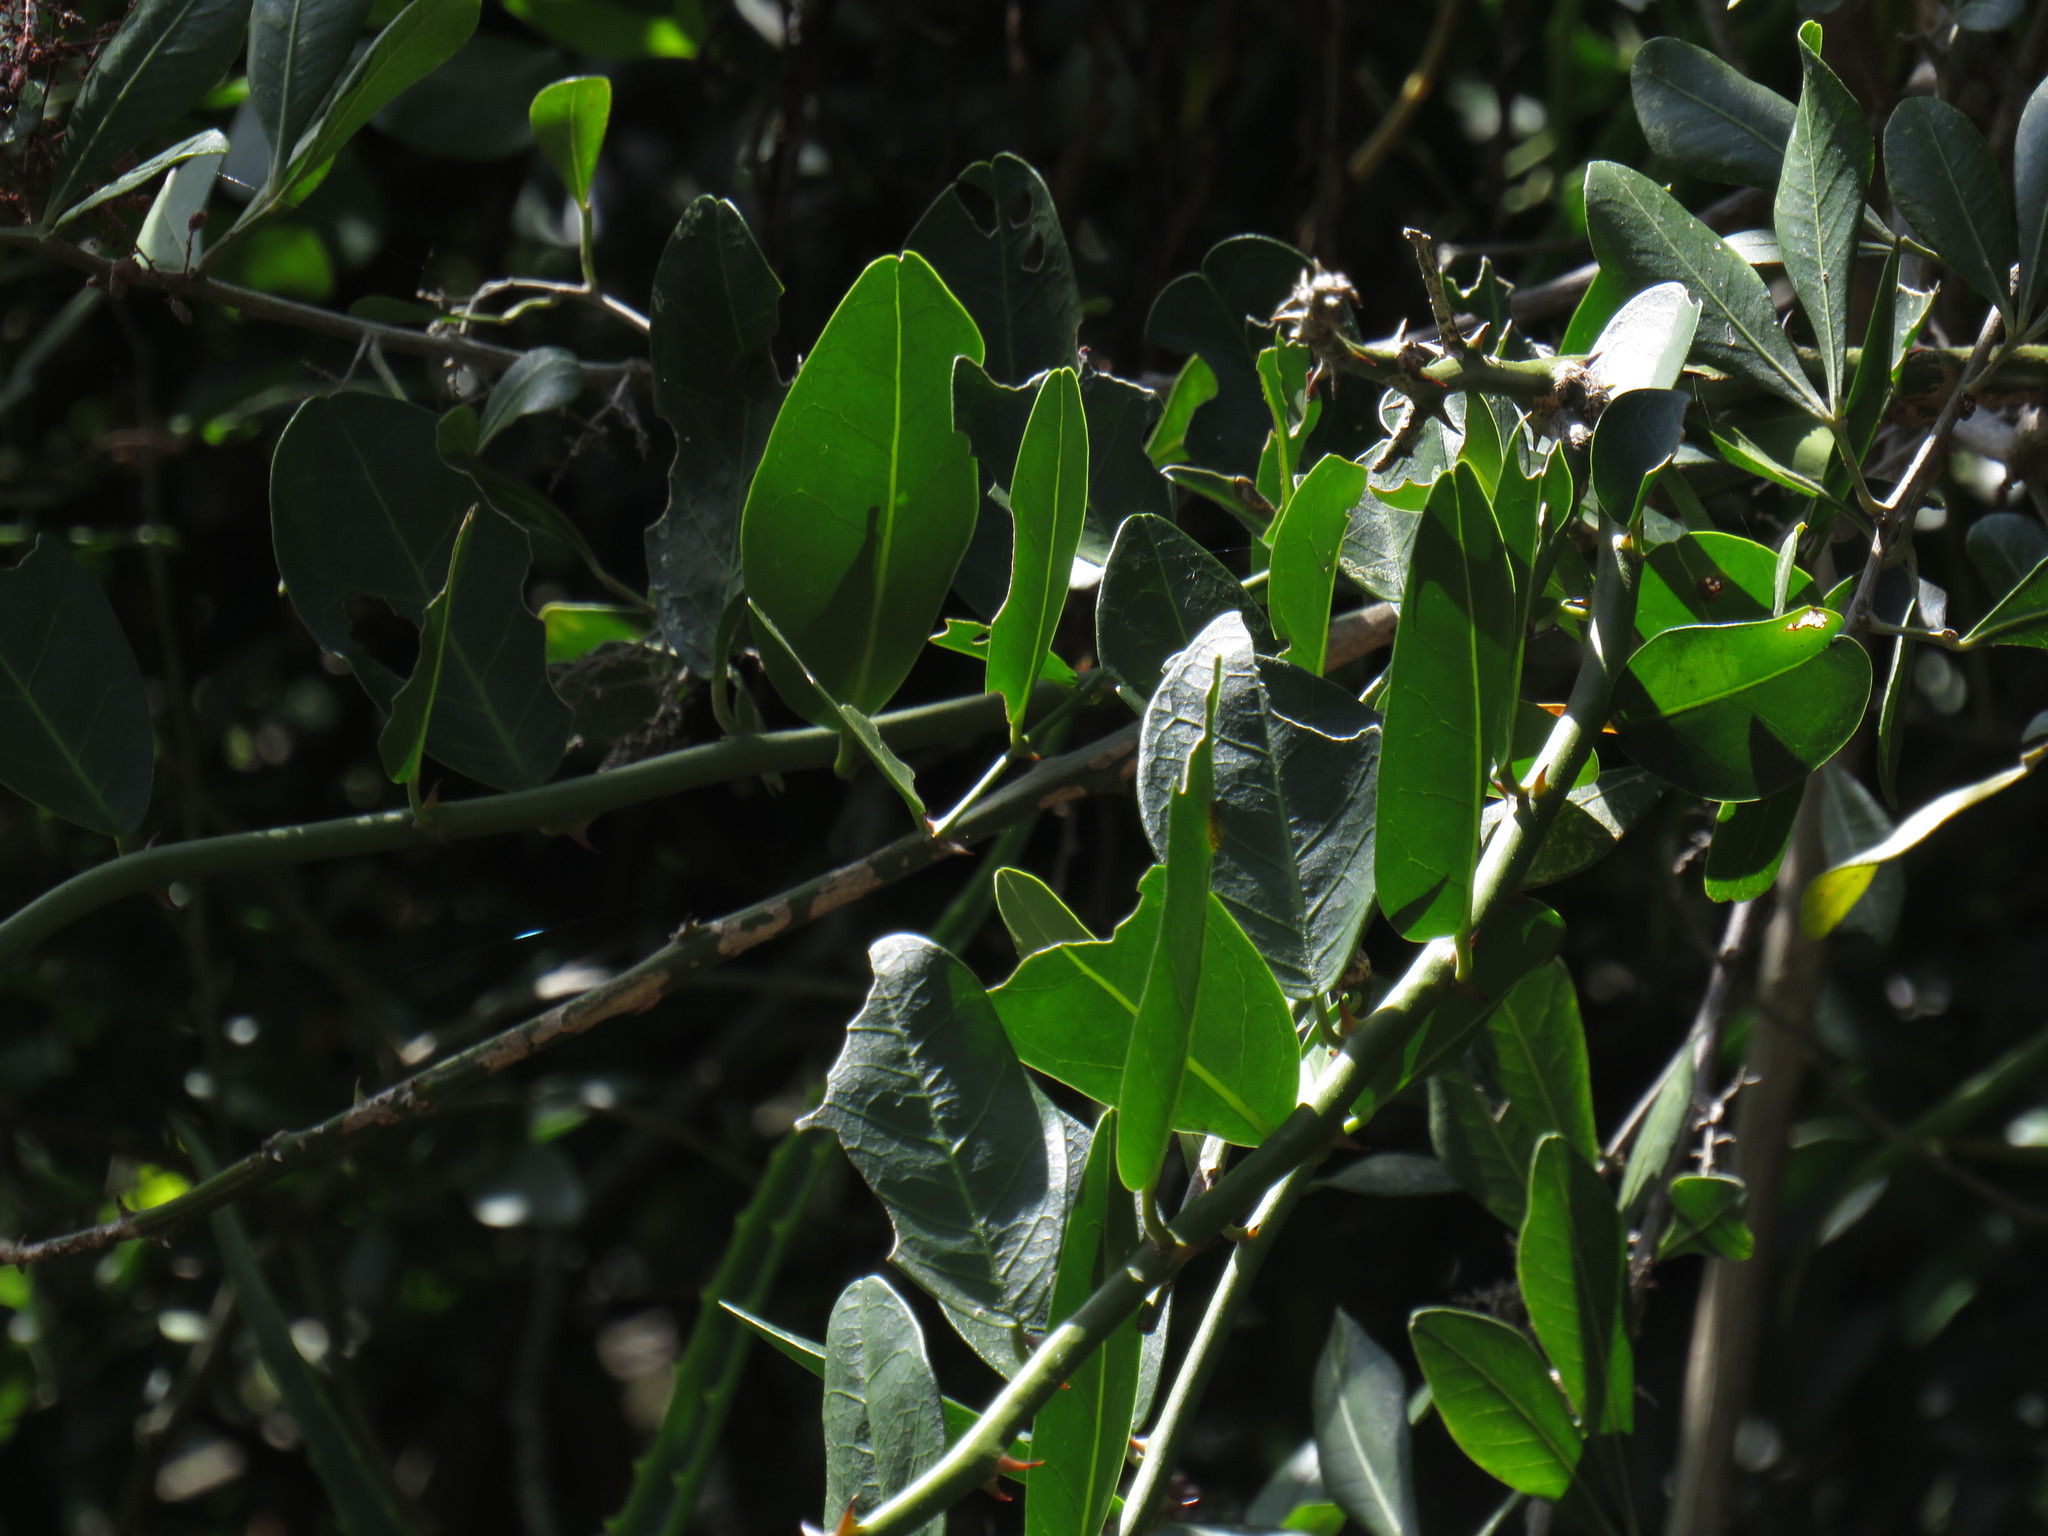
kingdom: Plantae
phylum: Tracheophyta
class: Magnoliopsida
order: Brassicales
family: Capparaceae
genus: Capparis
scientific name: Capparis sepiaria
